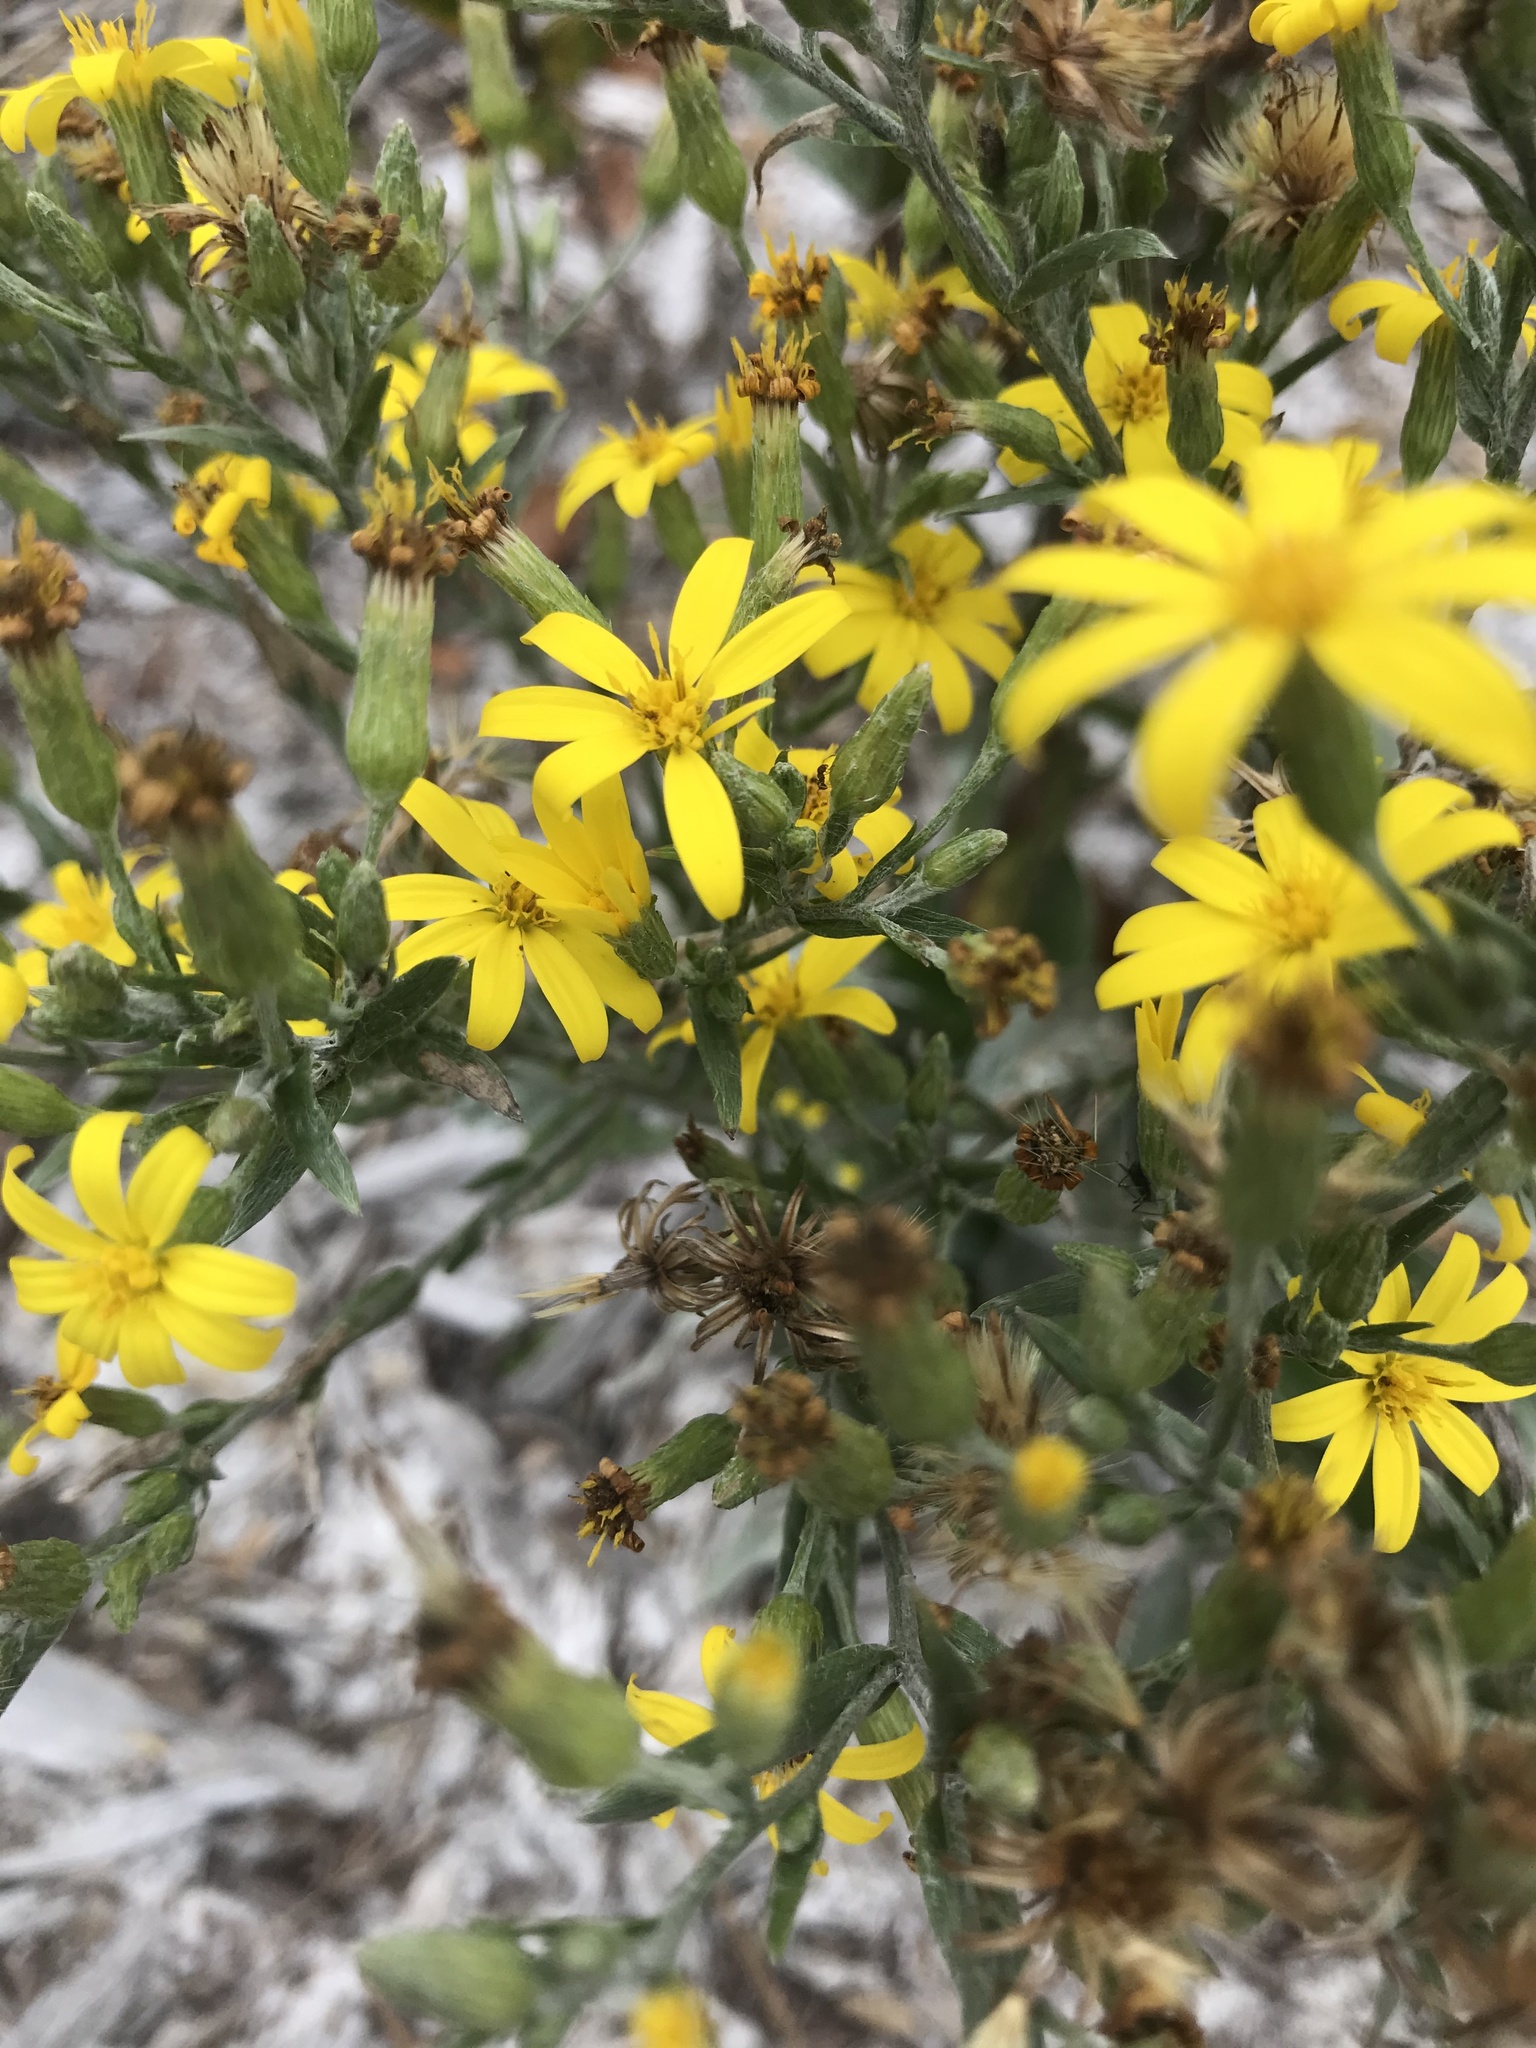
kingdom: Plantae
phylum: Tracheophyta
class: Magnoliopsida
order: Asterales
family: Asteraceae
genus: Pityopsis
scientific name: Pityopsis graminifolia
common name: Grass-leaf golden-aster
